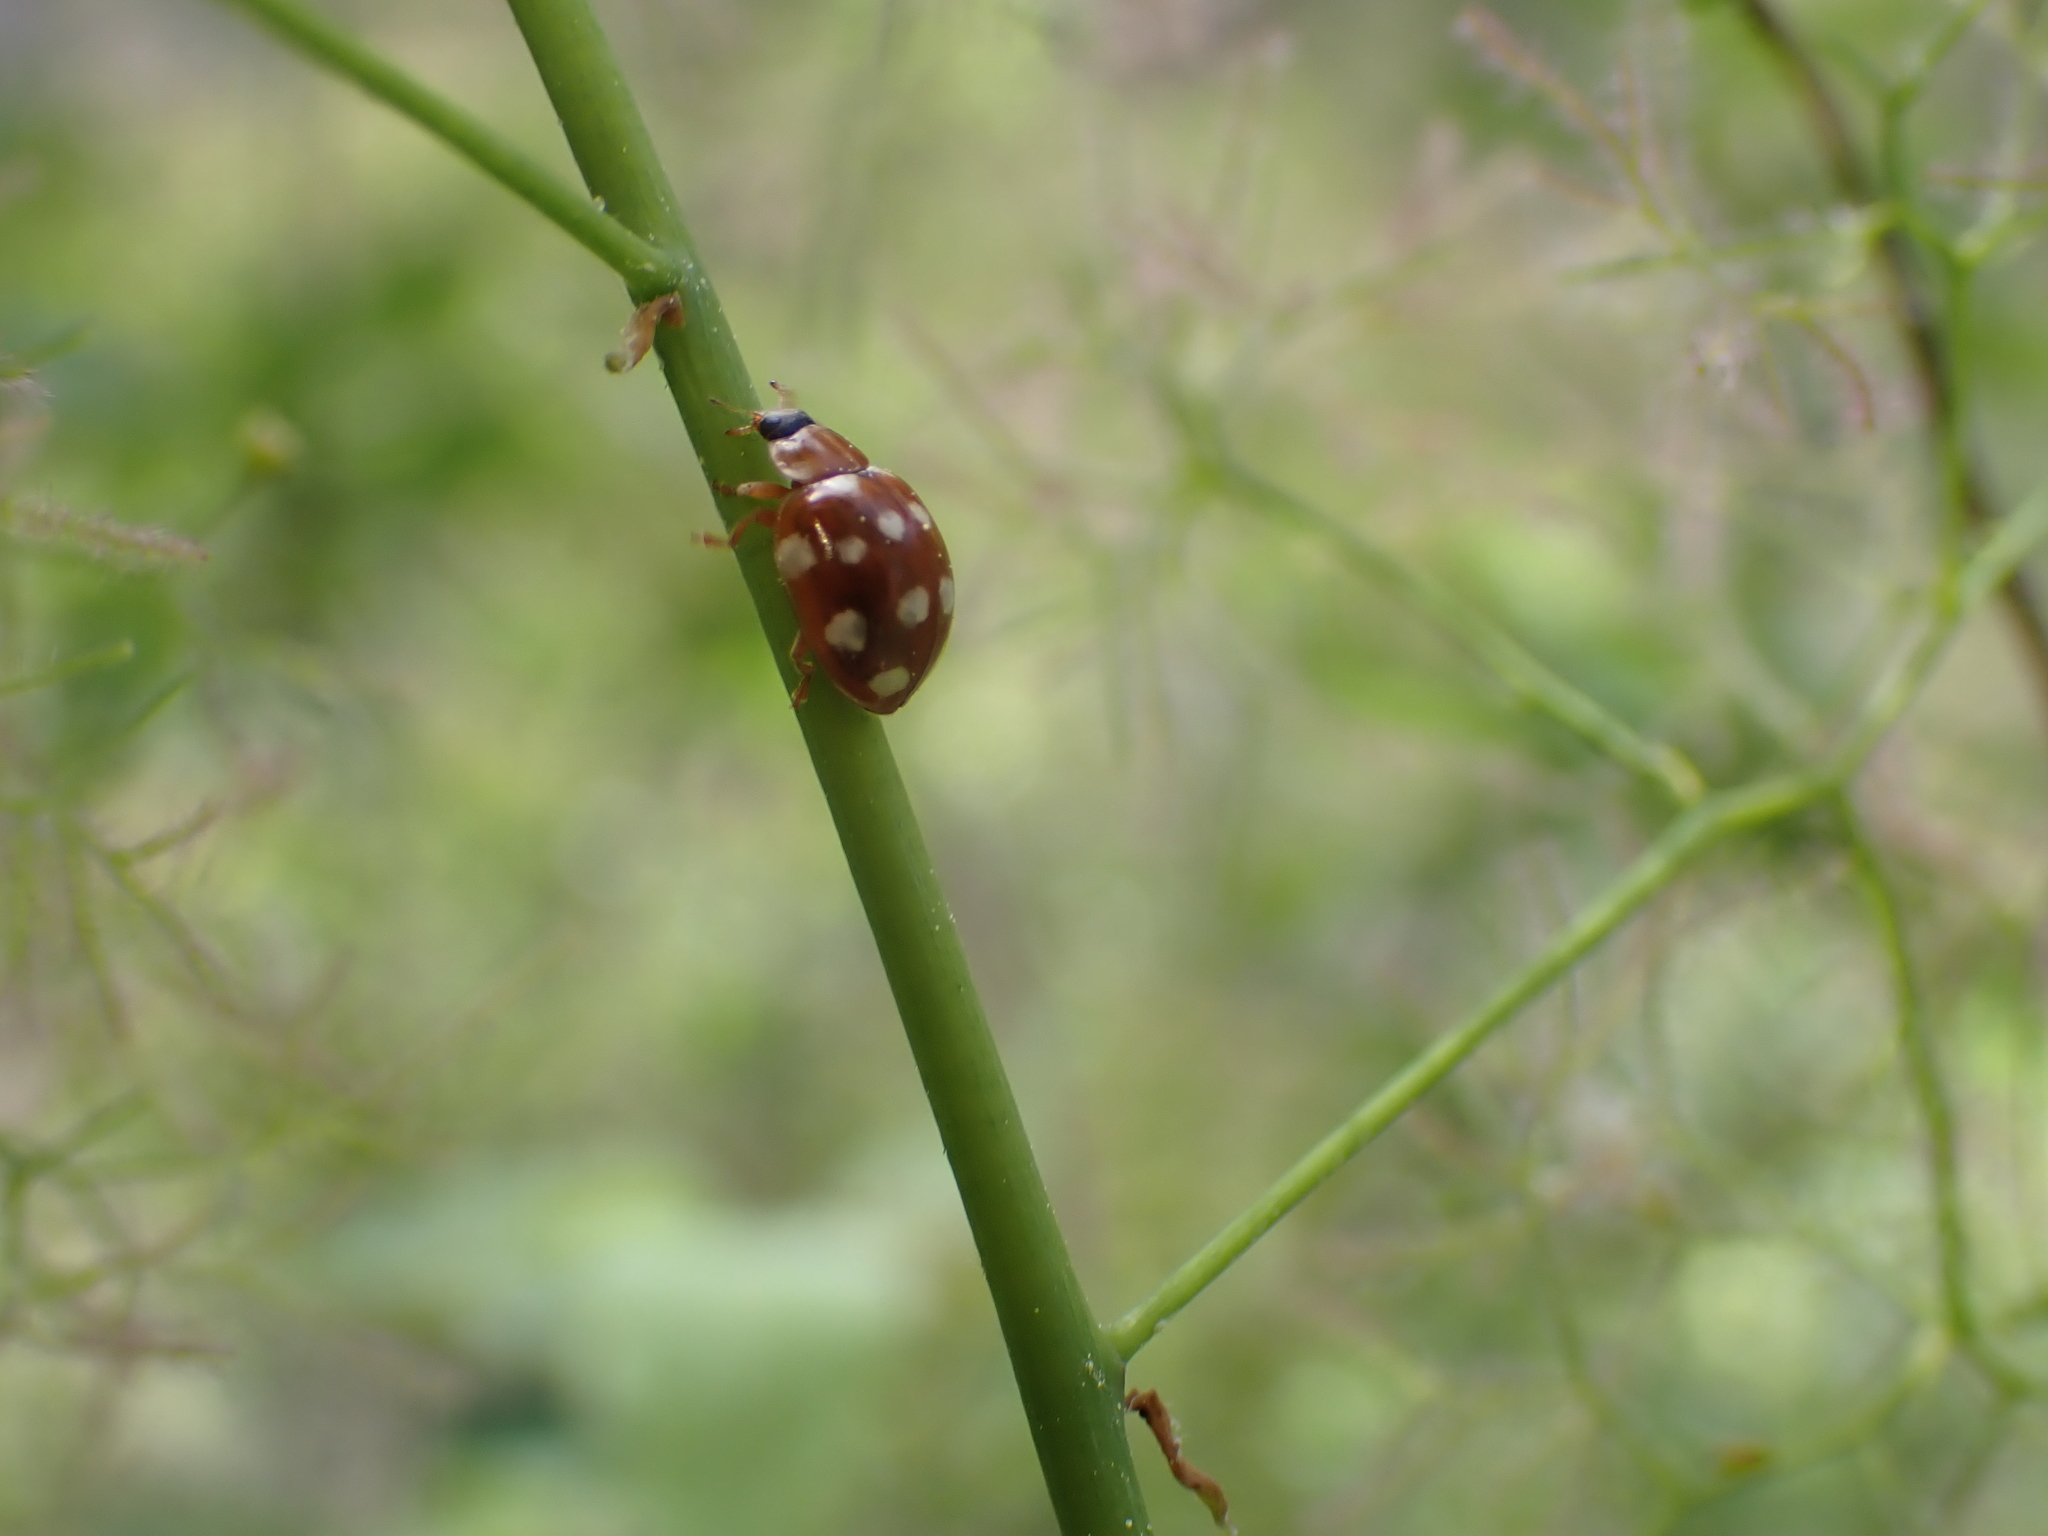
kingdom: Animalia
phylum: Arthropoda
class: Insecta
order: Coleoptera
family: Coccinellidae
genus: Calvia
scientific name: Calvia quatuordecimguttata
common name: Cream-spot ladybird
